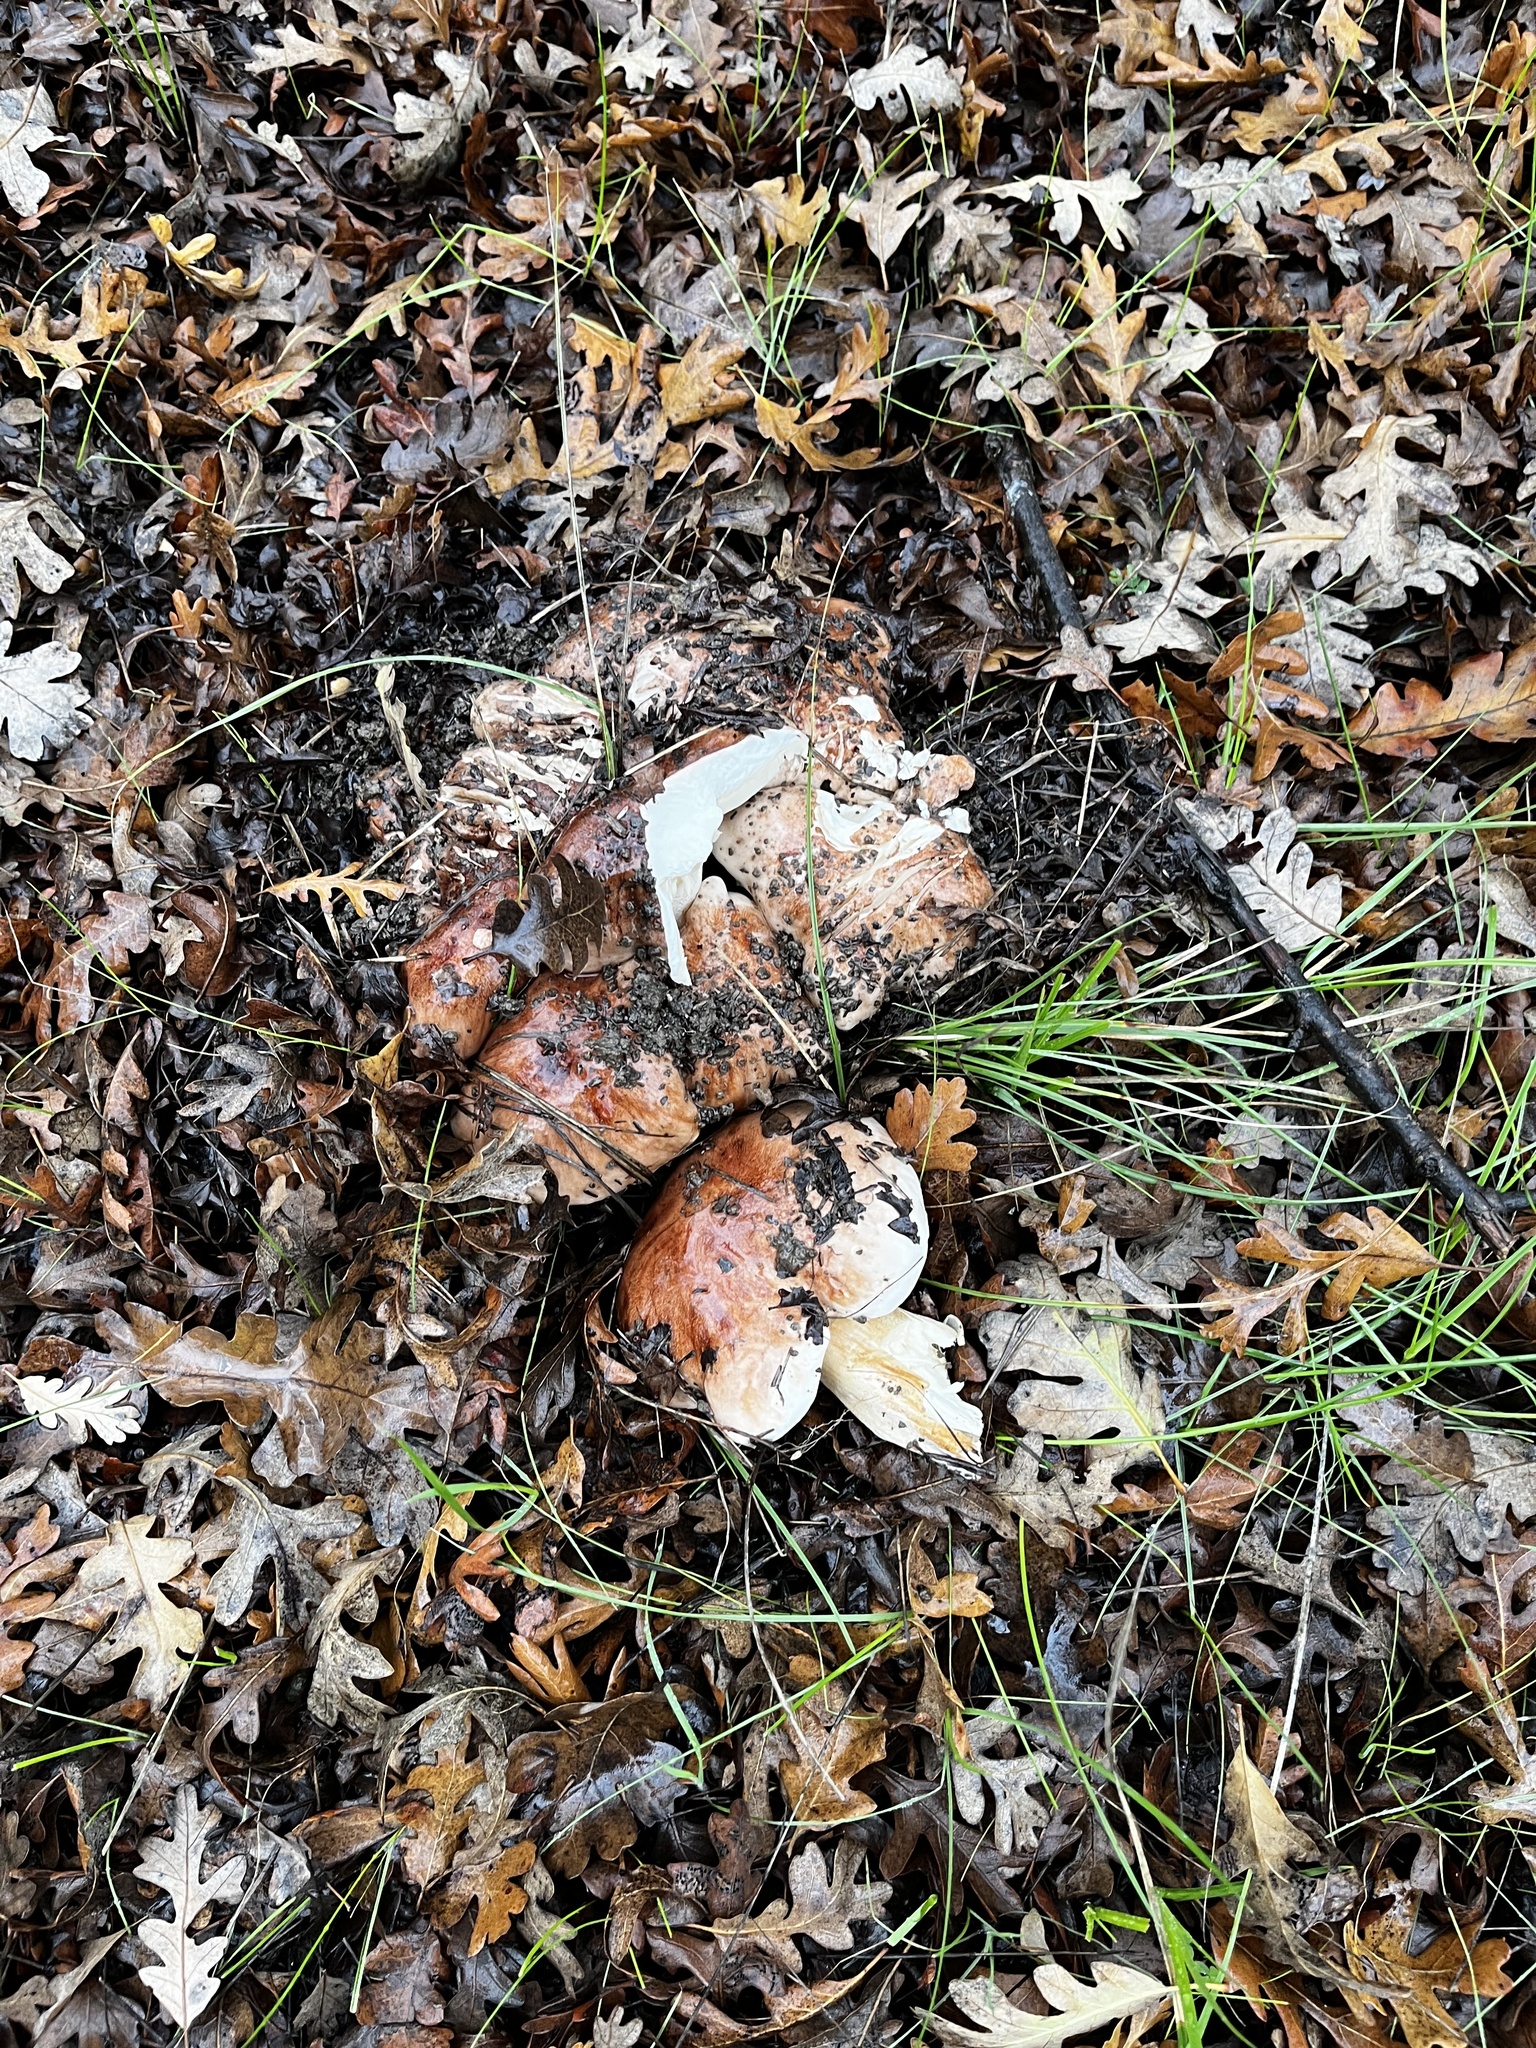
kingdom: Fungi
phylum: Basidiomycota
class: Agaricomycetes
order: Agaricales
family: Tricholomataceae
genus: Melanoleuca
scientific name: Melanoleuca dryophila
